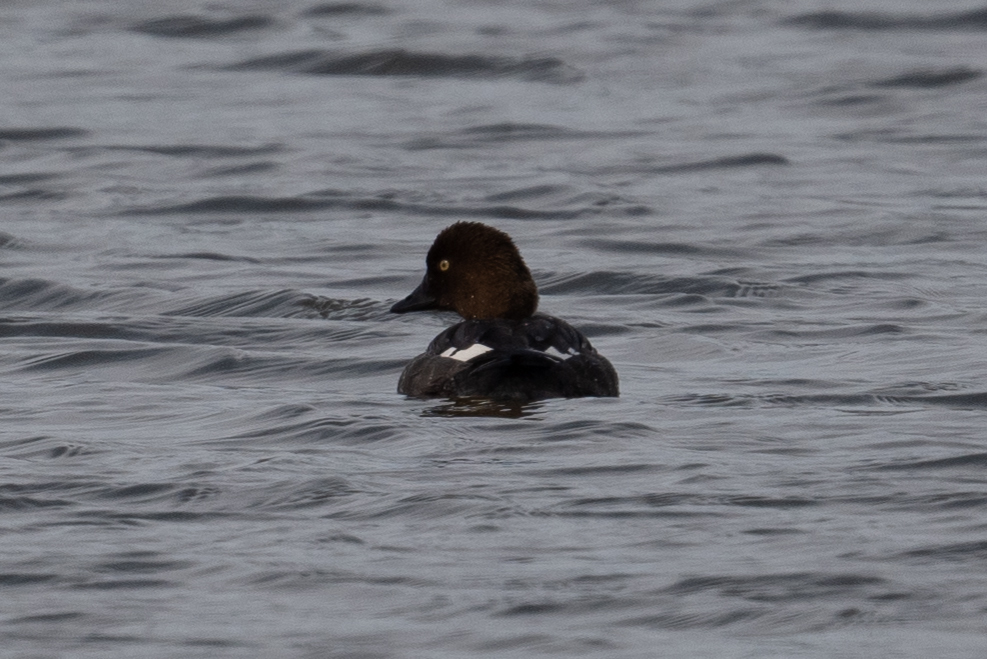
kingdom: Animalia
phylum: Chordata
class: Aves
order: Anseriformes
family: Anatidae
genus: Bucephala
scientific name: Bucephala clangula
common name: Common goldeneye
